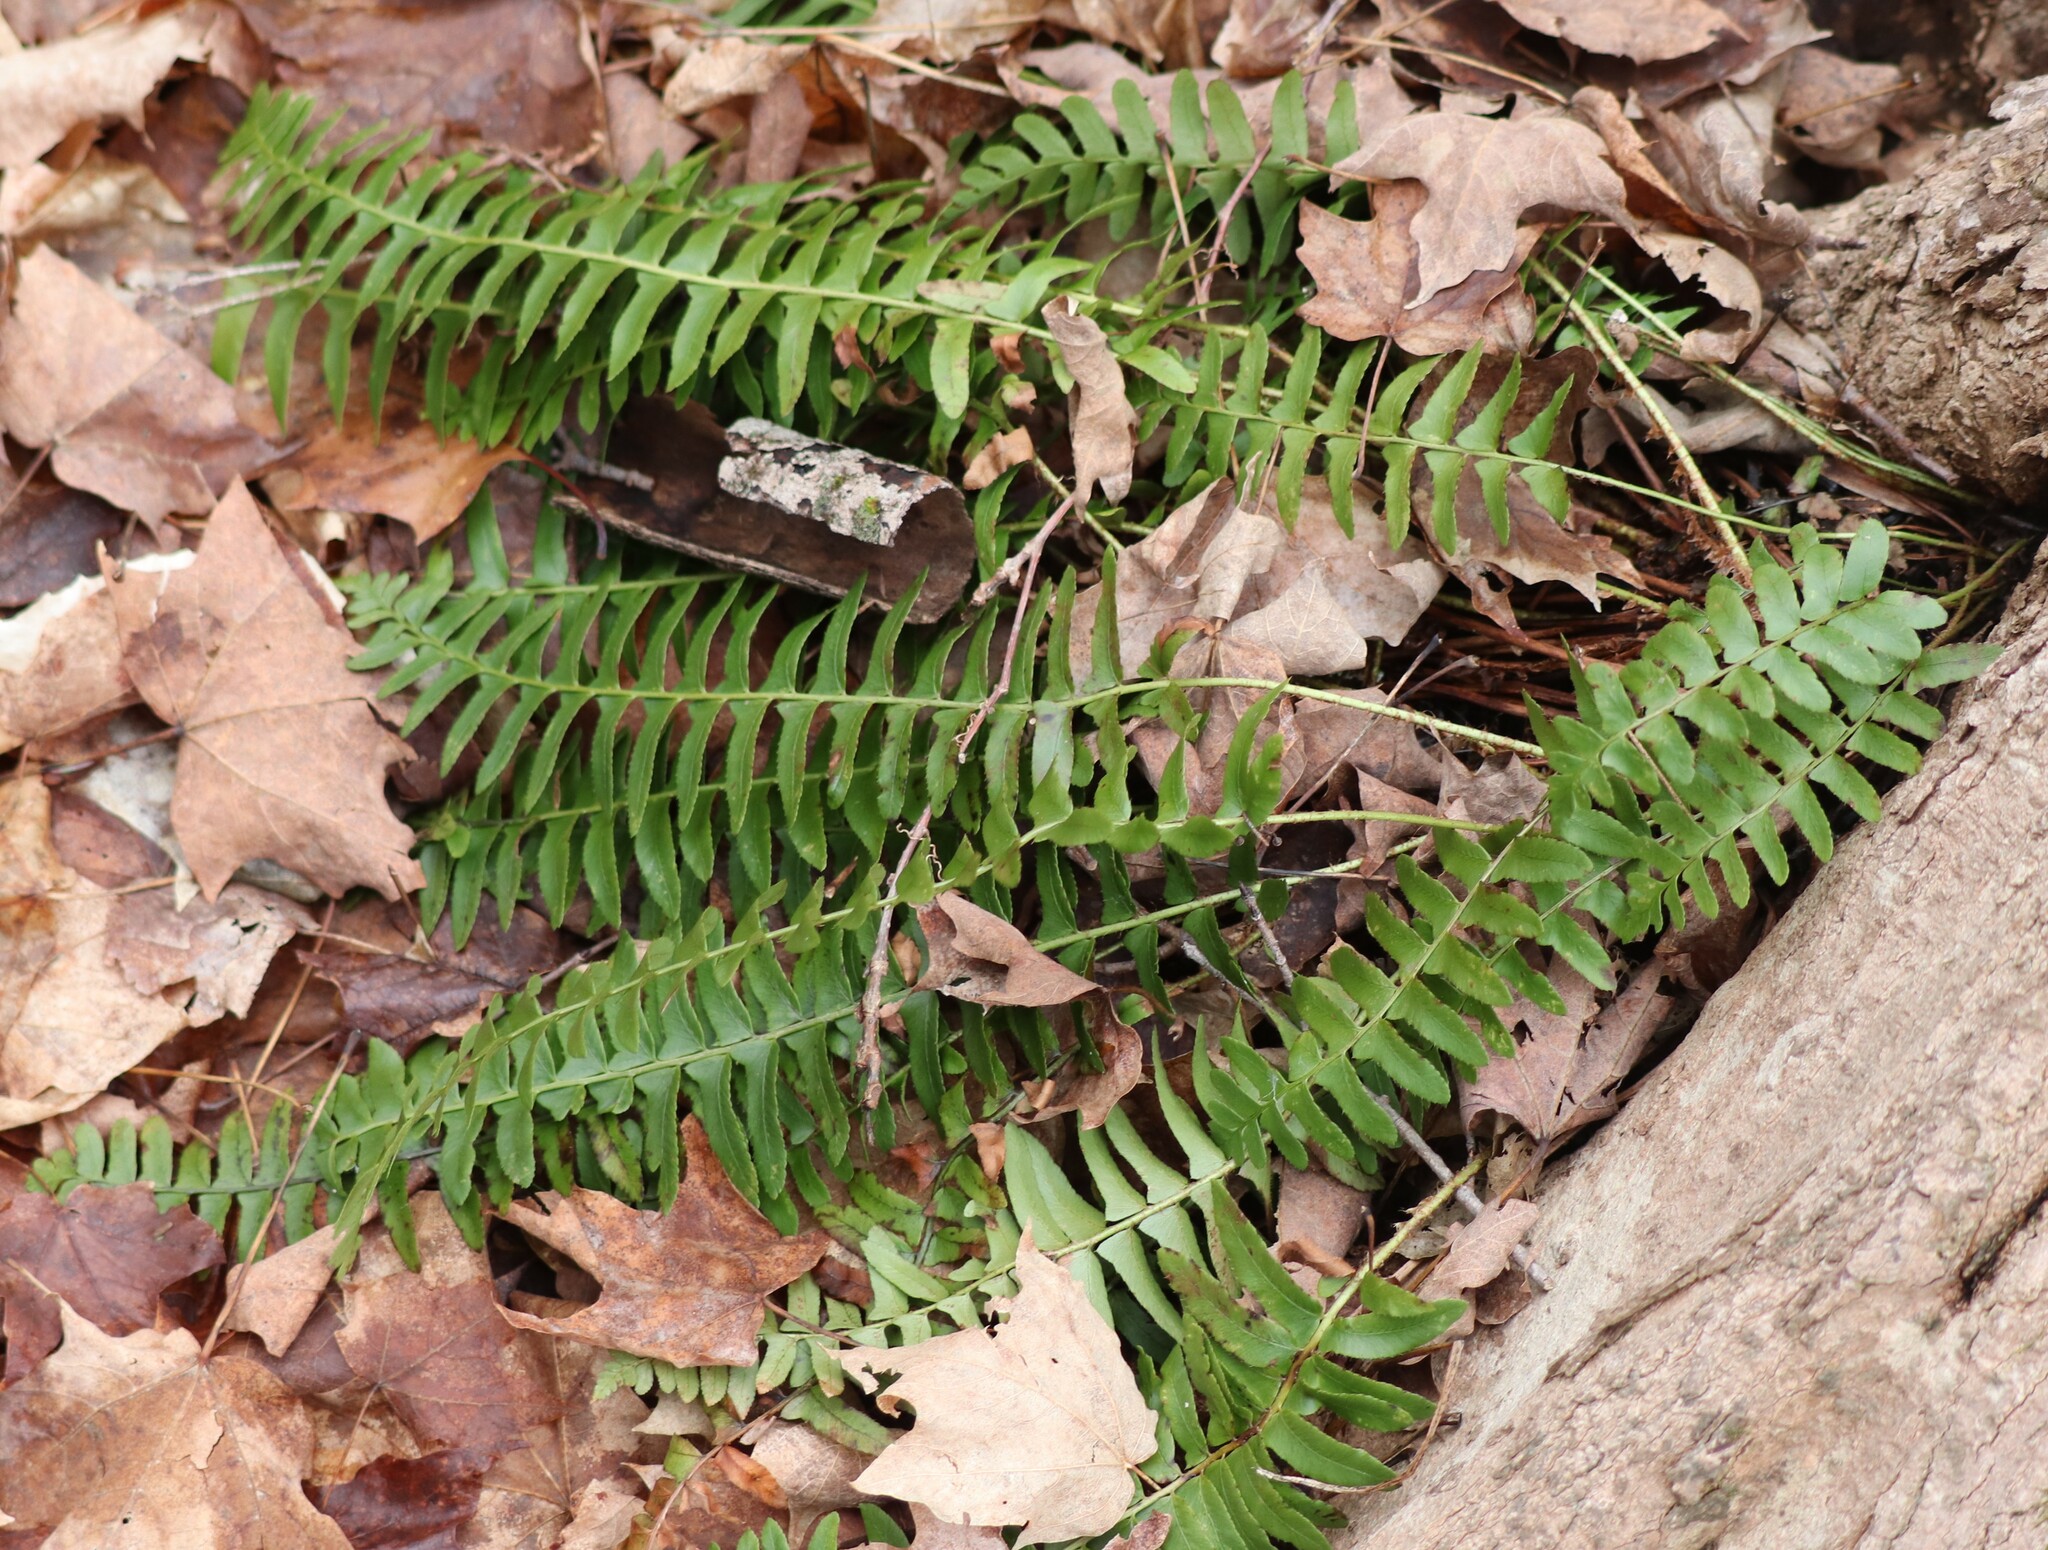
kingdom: Plantae
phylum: Tracheophyta
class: Polypodiopsida
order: Polypodiales
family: Dryopteridaceae
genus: Polystichum
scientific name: Polystichum acrostichoides
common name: Christmas fern
